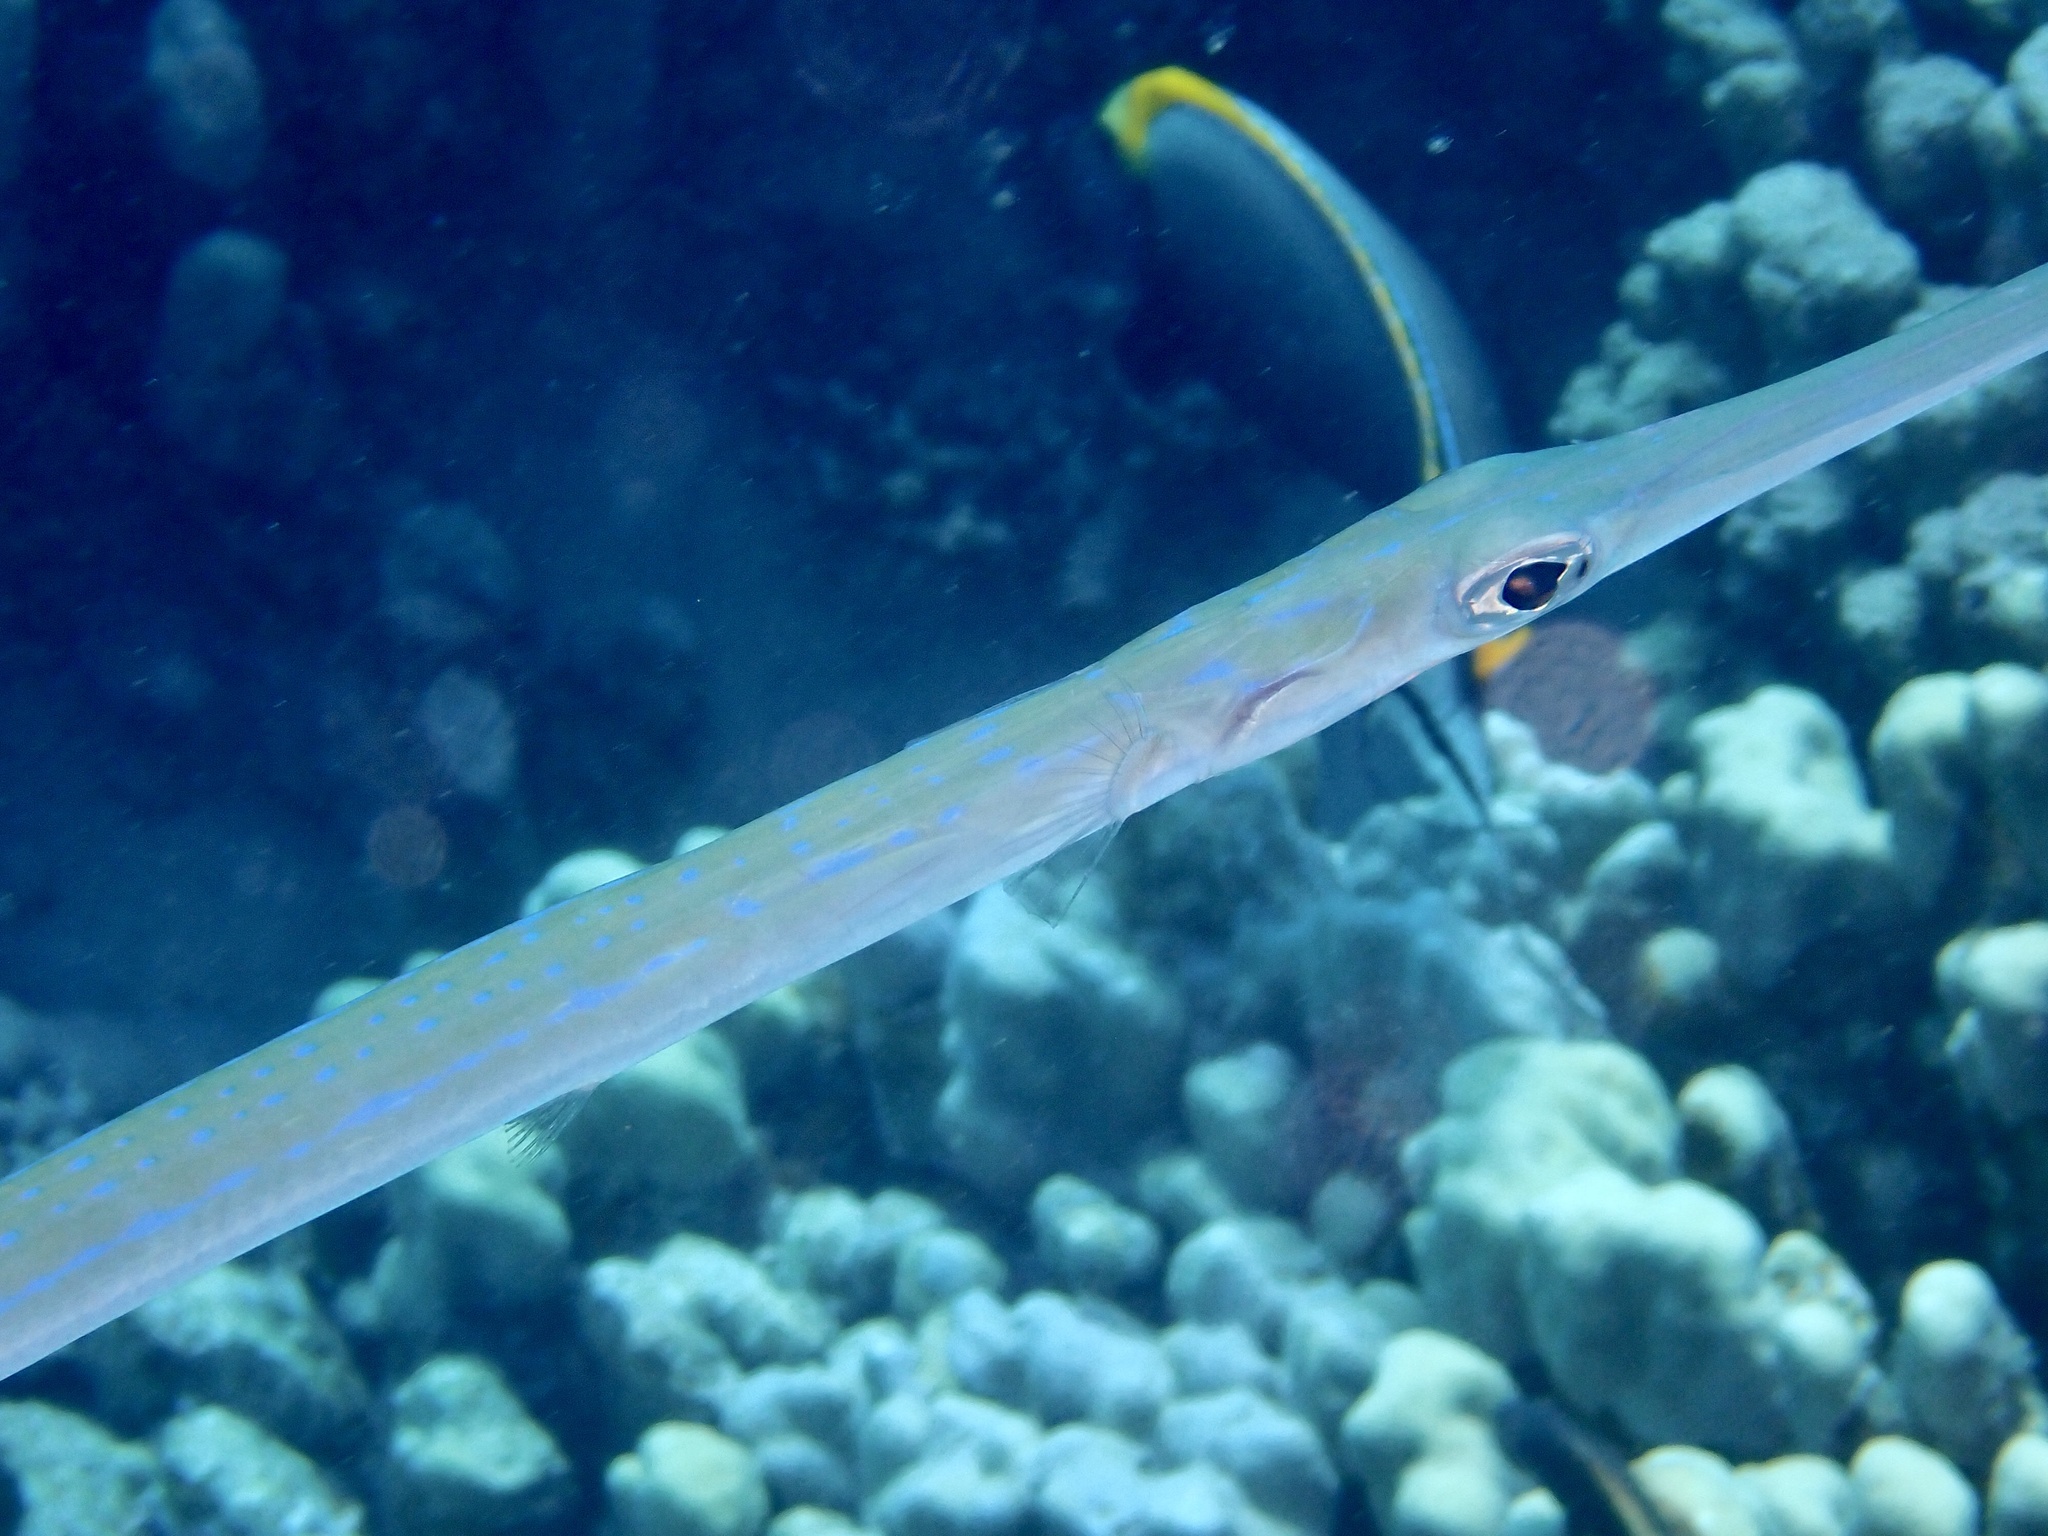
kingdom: Animalia
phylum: Chordata
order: Syngnathiformes
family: Fistulariidae
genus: Fistularia
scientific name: Fistularia commersonii
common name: Bluespotted cornetfish
